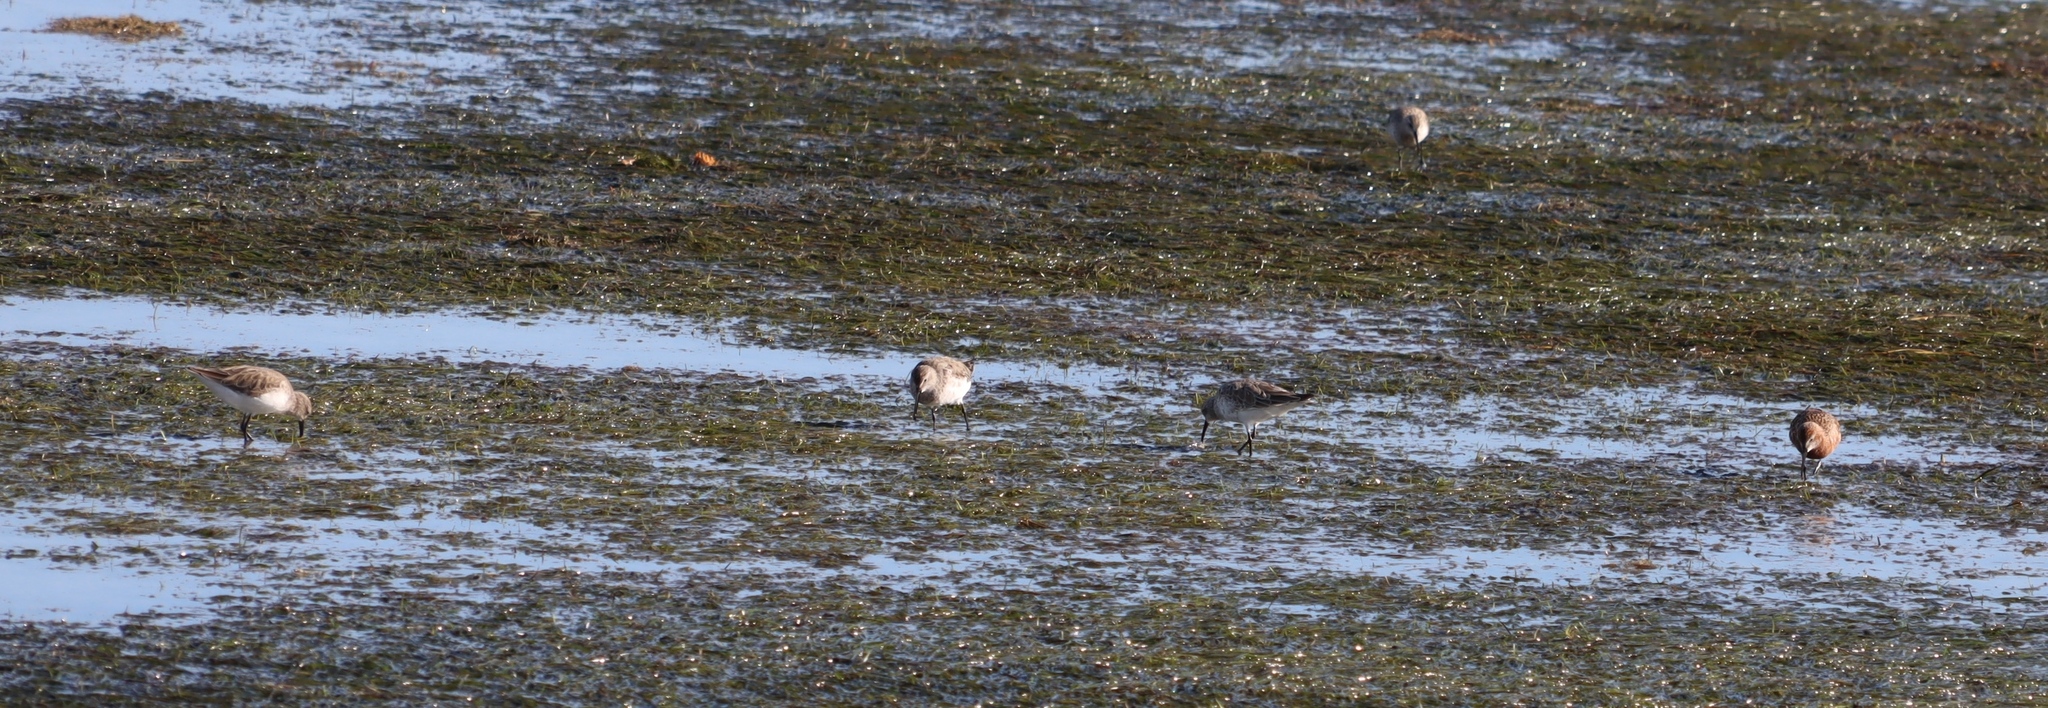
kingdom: Animalia
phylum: Chordata
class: Aves
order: Charadriiformes
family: Scolopacidae
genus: Calidris
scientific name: Calidris ferruginea
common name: Curlew sandpiper
